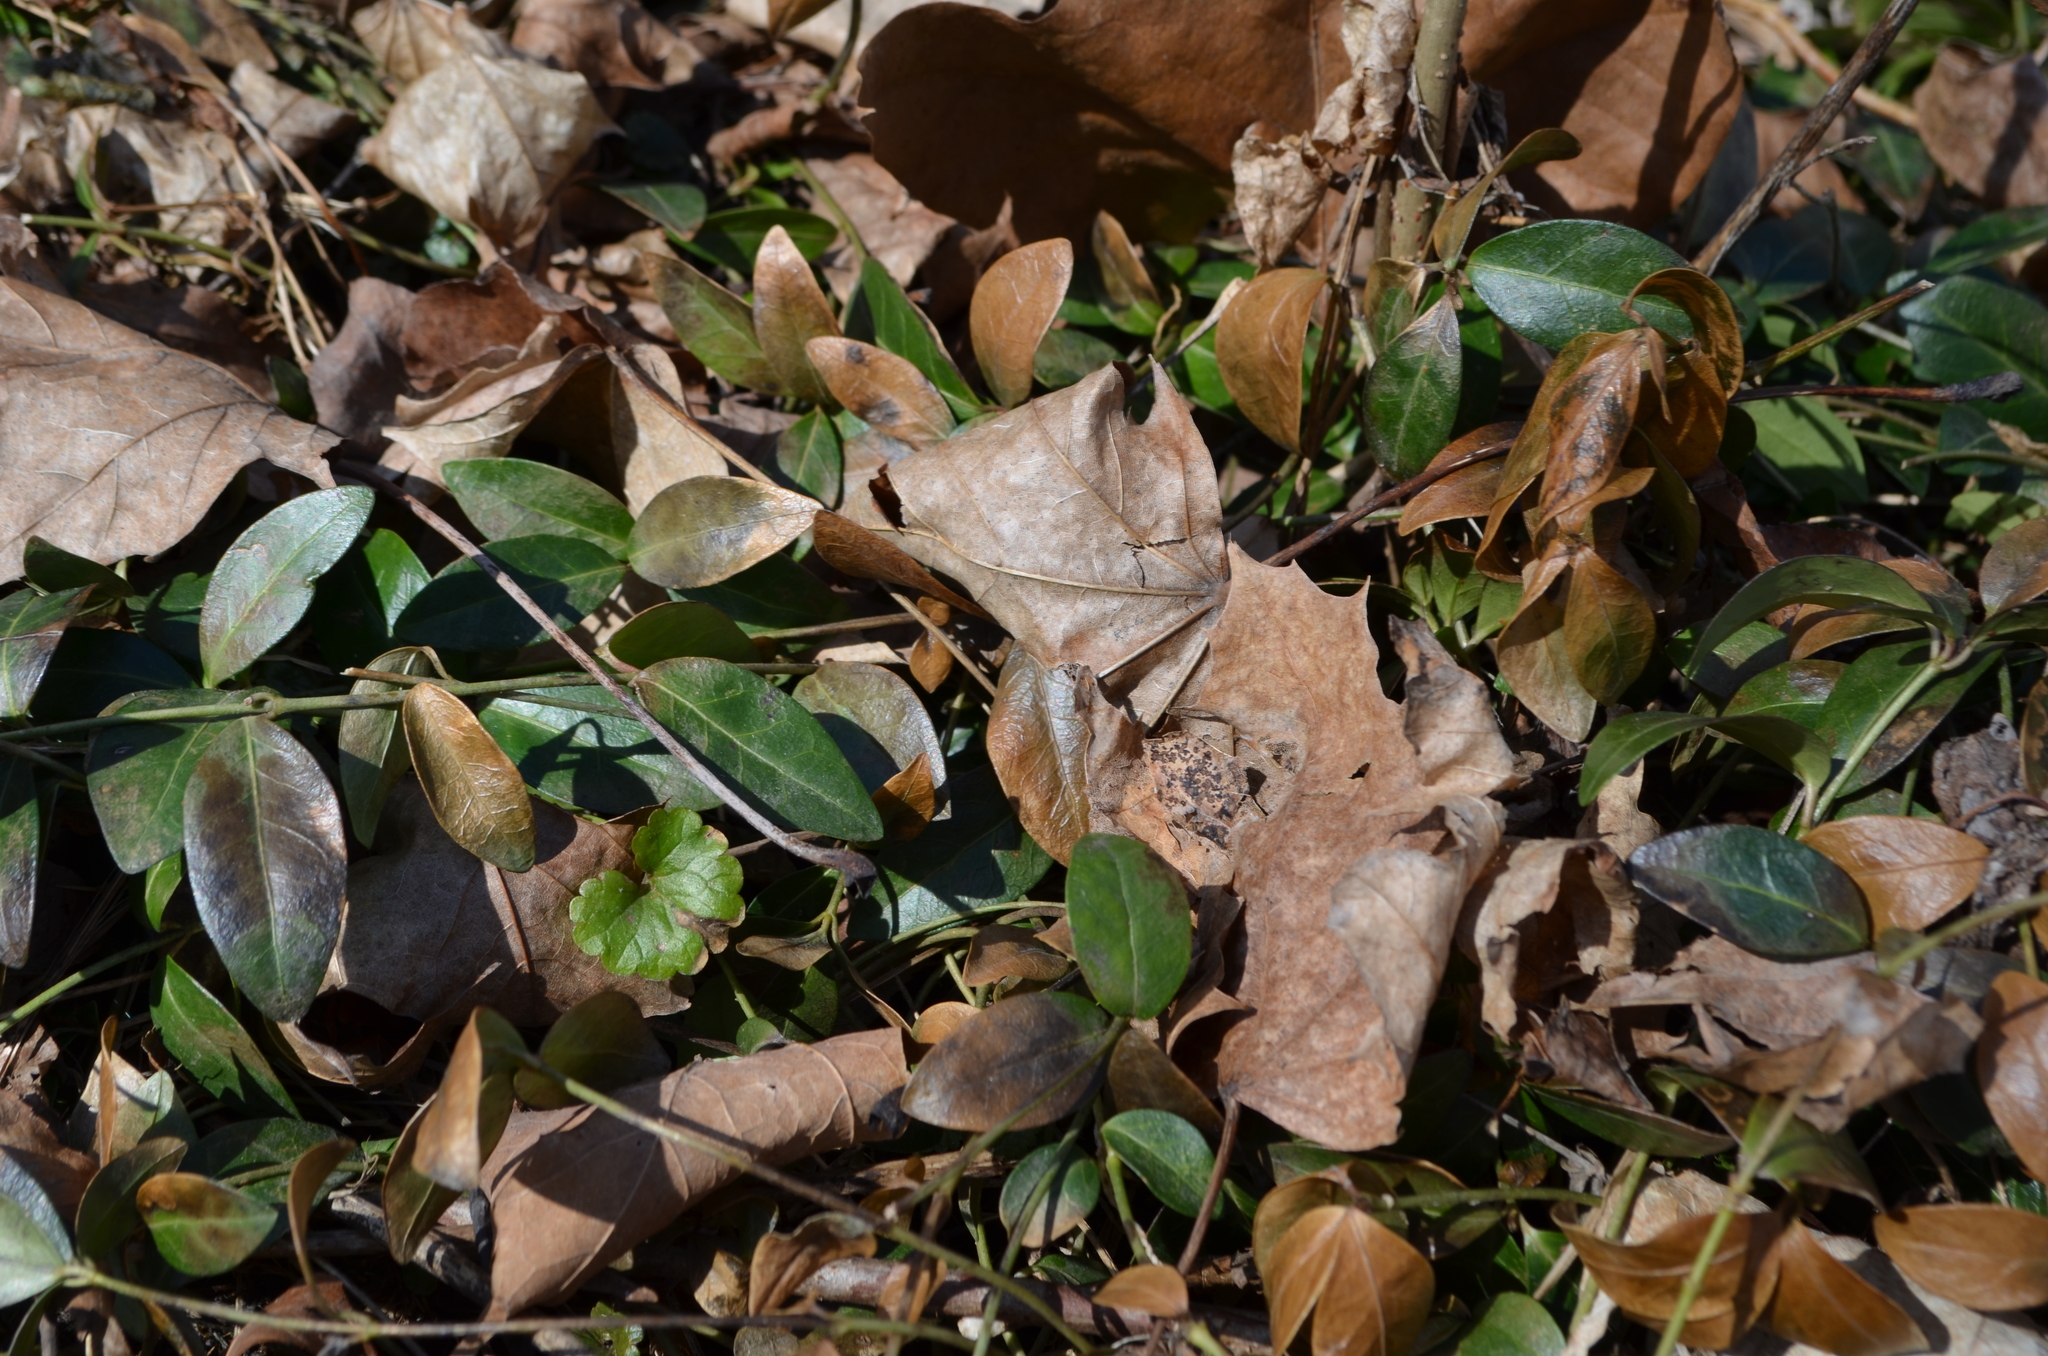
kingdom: Plantae
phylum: Tracheophyta
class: Magnoliopsida
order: Gentianales
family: Apocynaceae
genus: Vinca
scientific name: Vinca minor
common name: Lesser periwinkle
